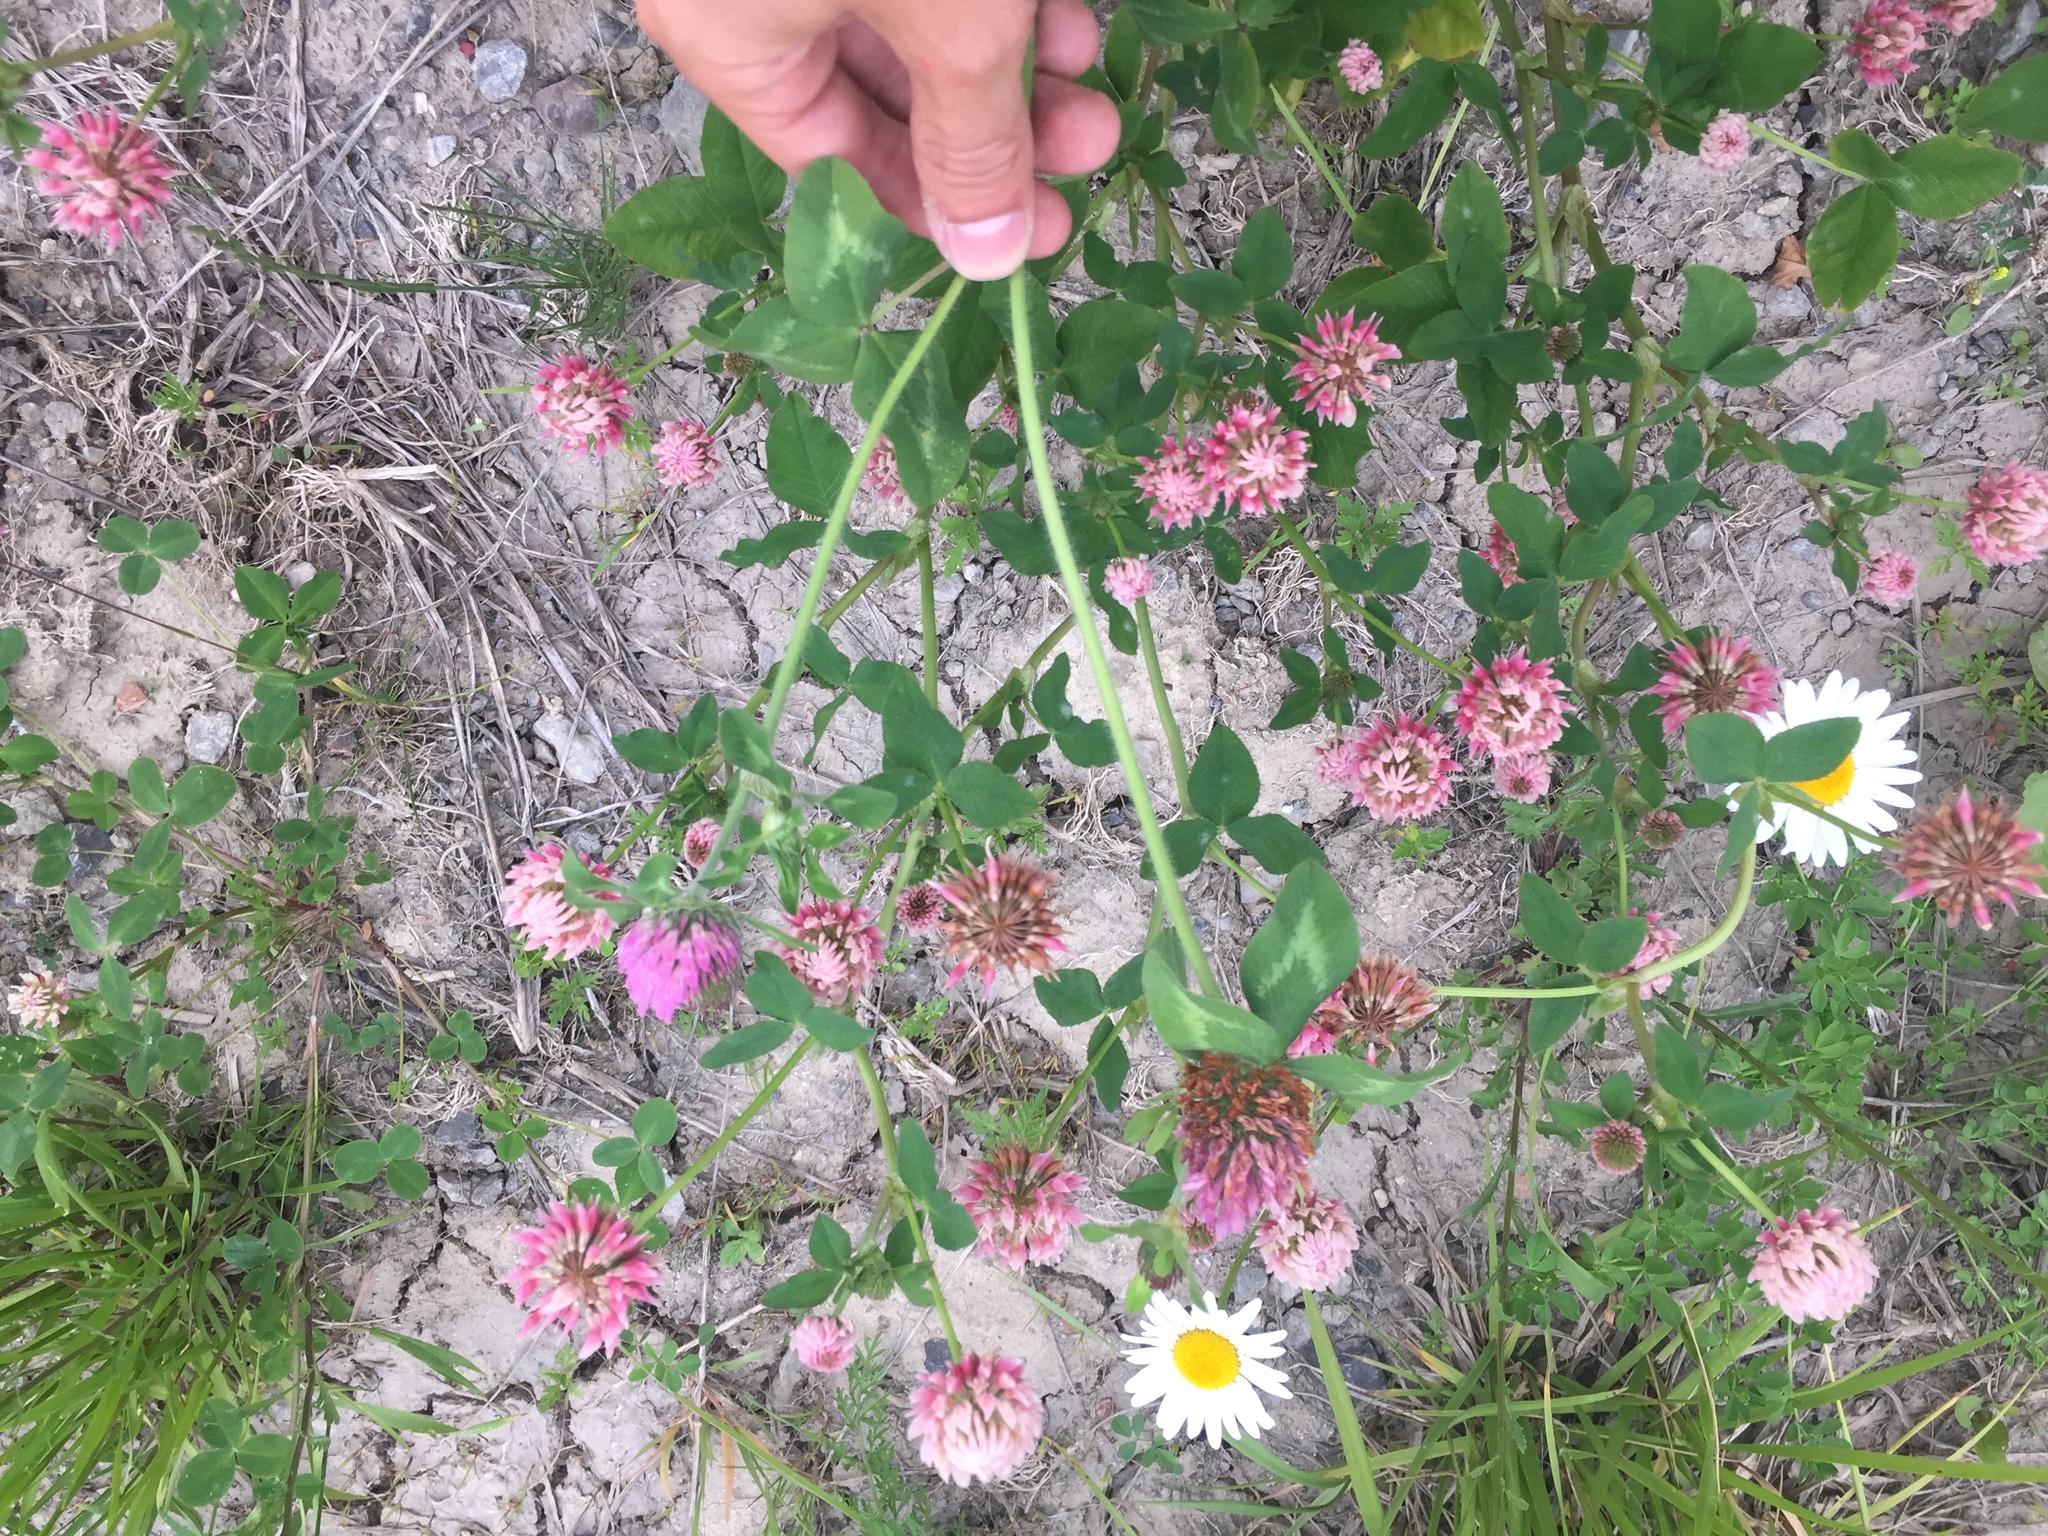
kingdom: Plantae
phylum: Tracheophyta
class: Magnoliopsida
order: Fabales
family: Fabaceae
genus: Trifolium
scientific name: Trifolium hybridum
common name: Alsike clover
